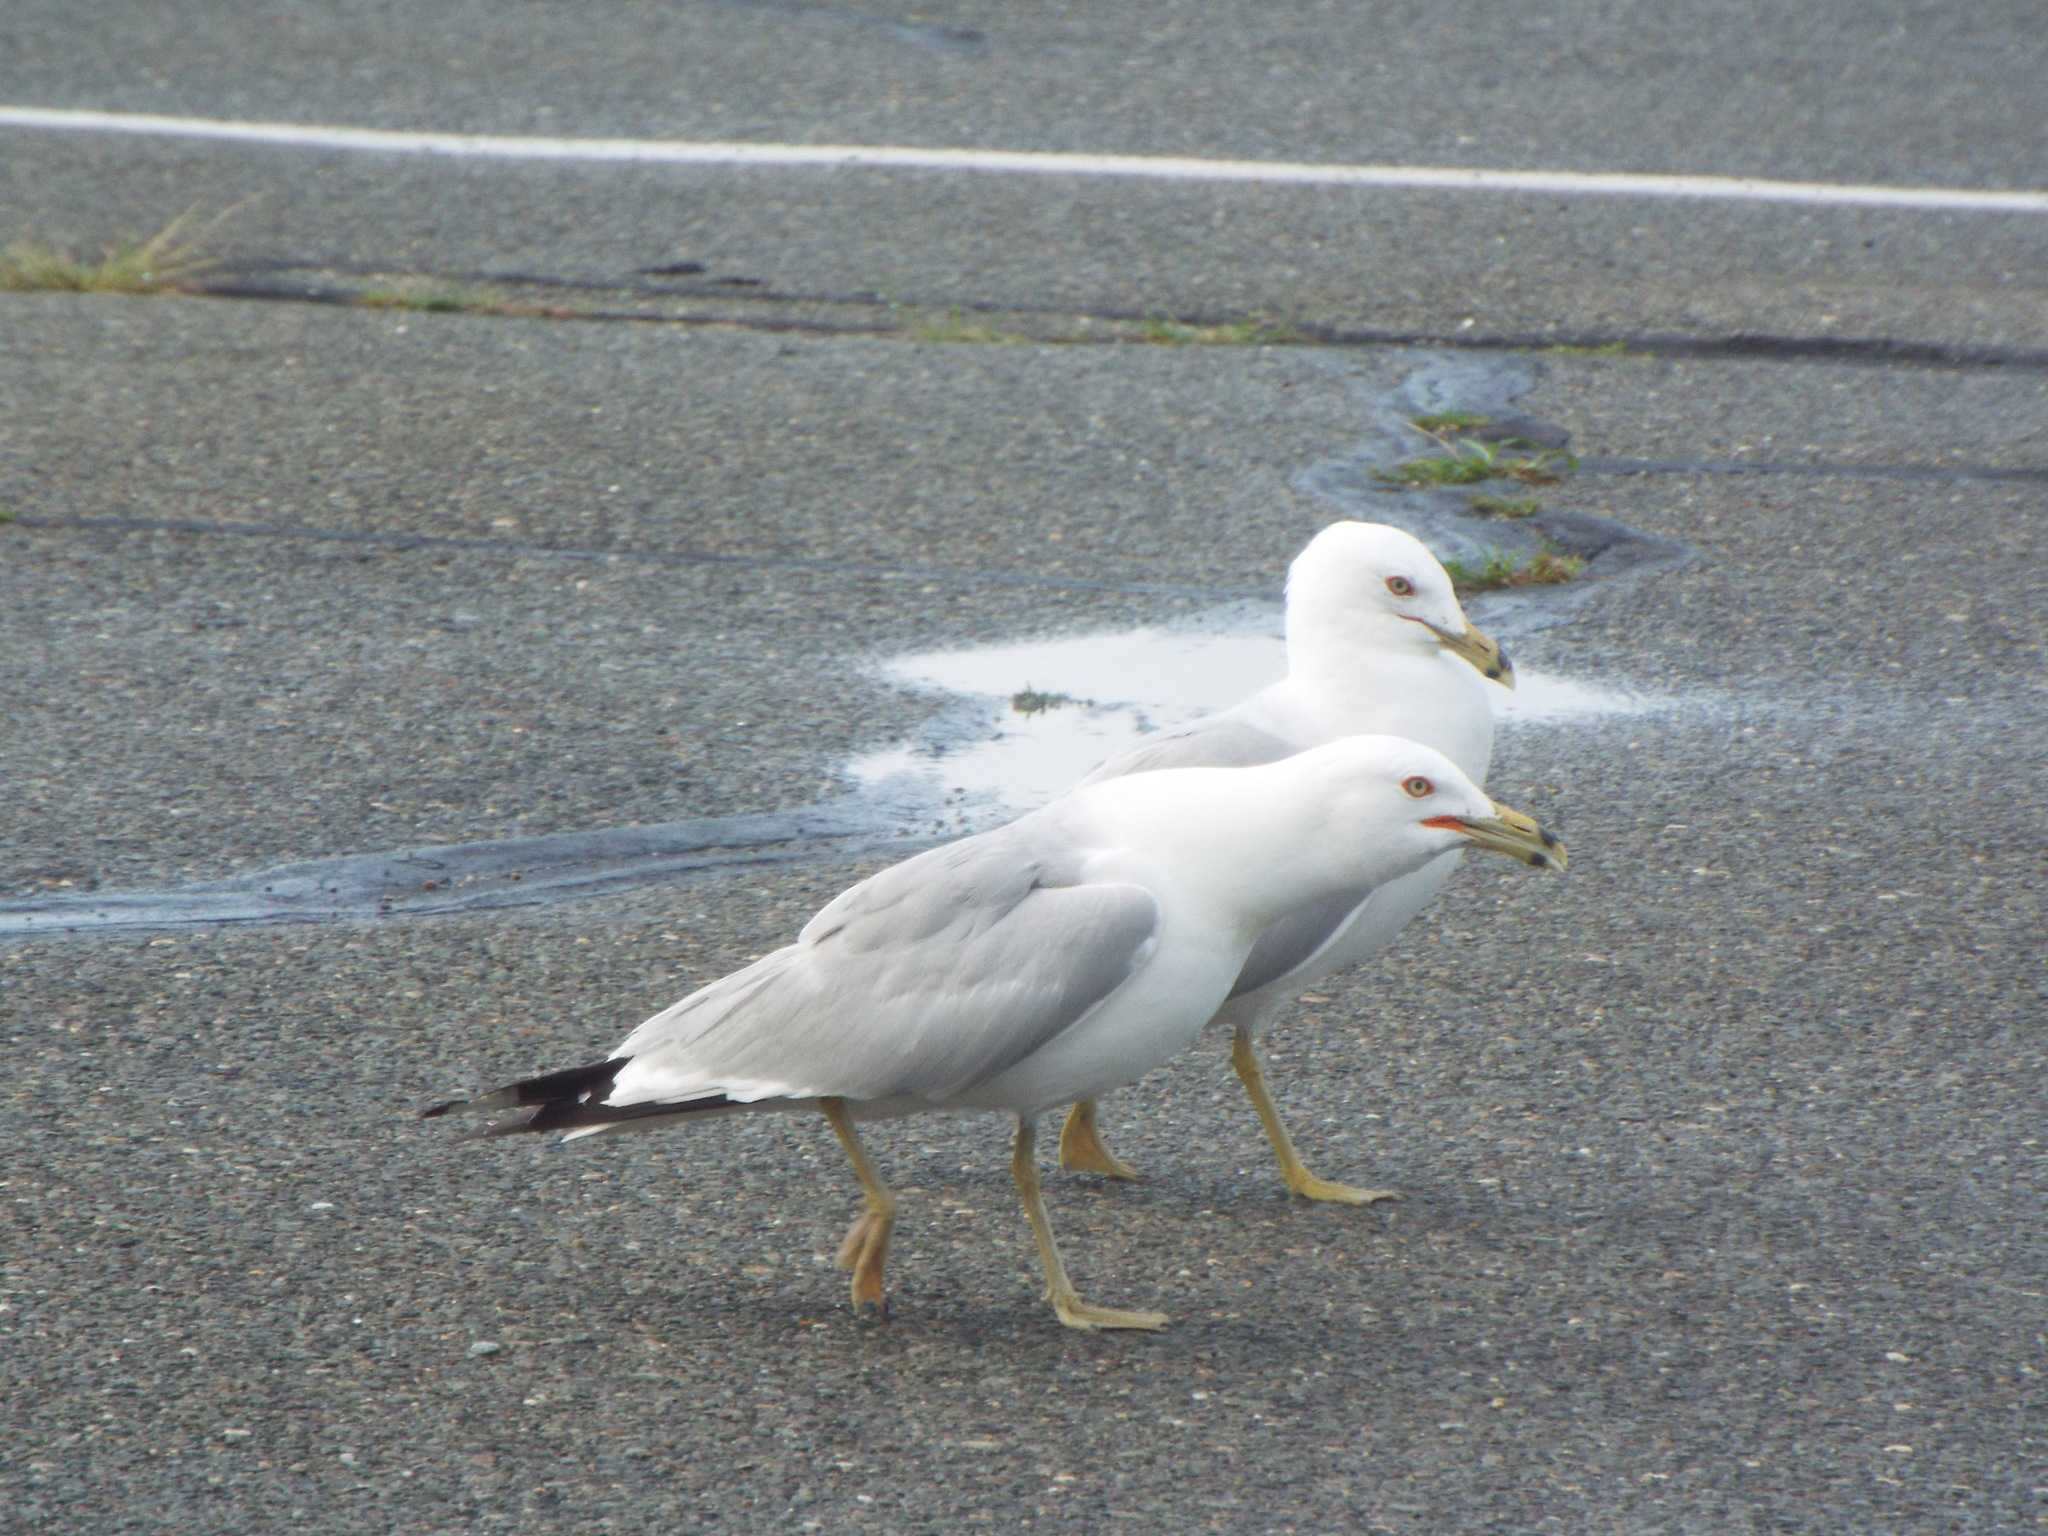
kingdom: Animalia
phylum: Chordata
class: Aves
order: Charadriiformes
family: Laridae
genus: Larus
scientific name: Larus delawarensis
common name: Ring-billed gull
